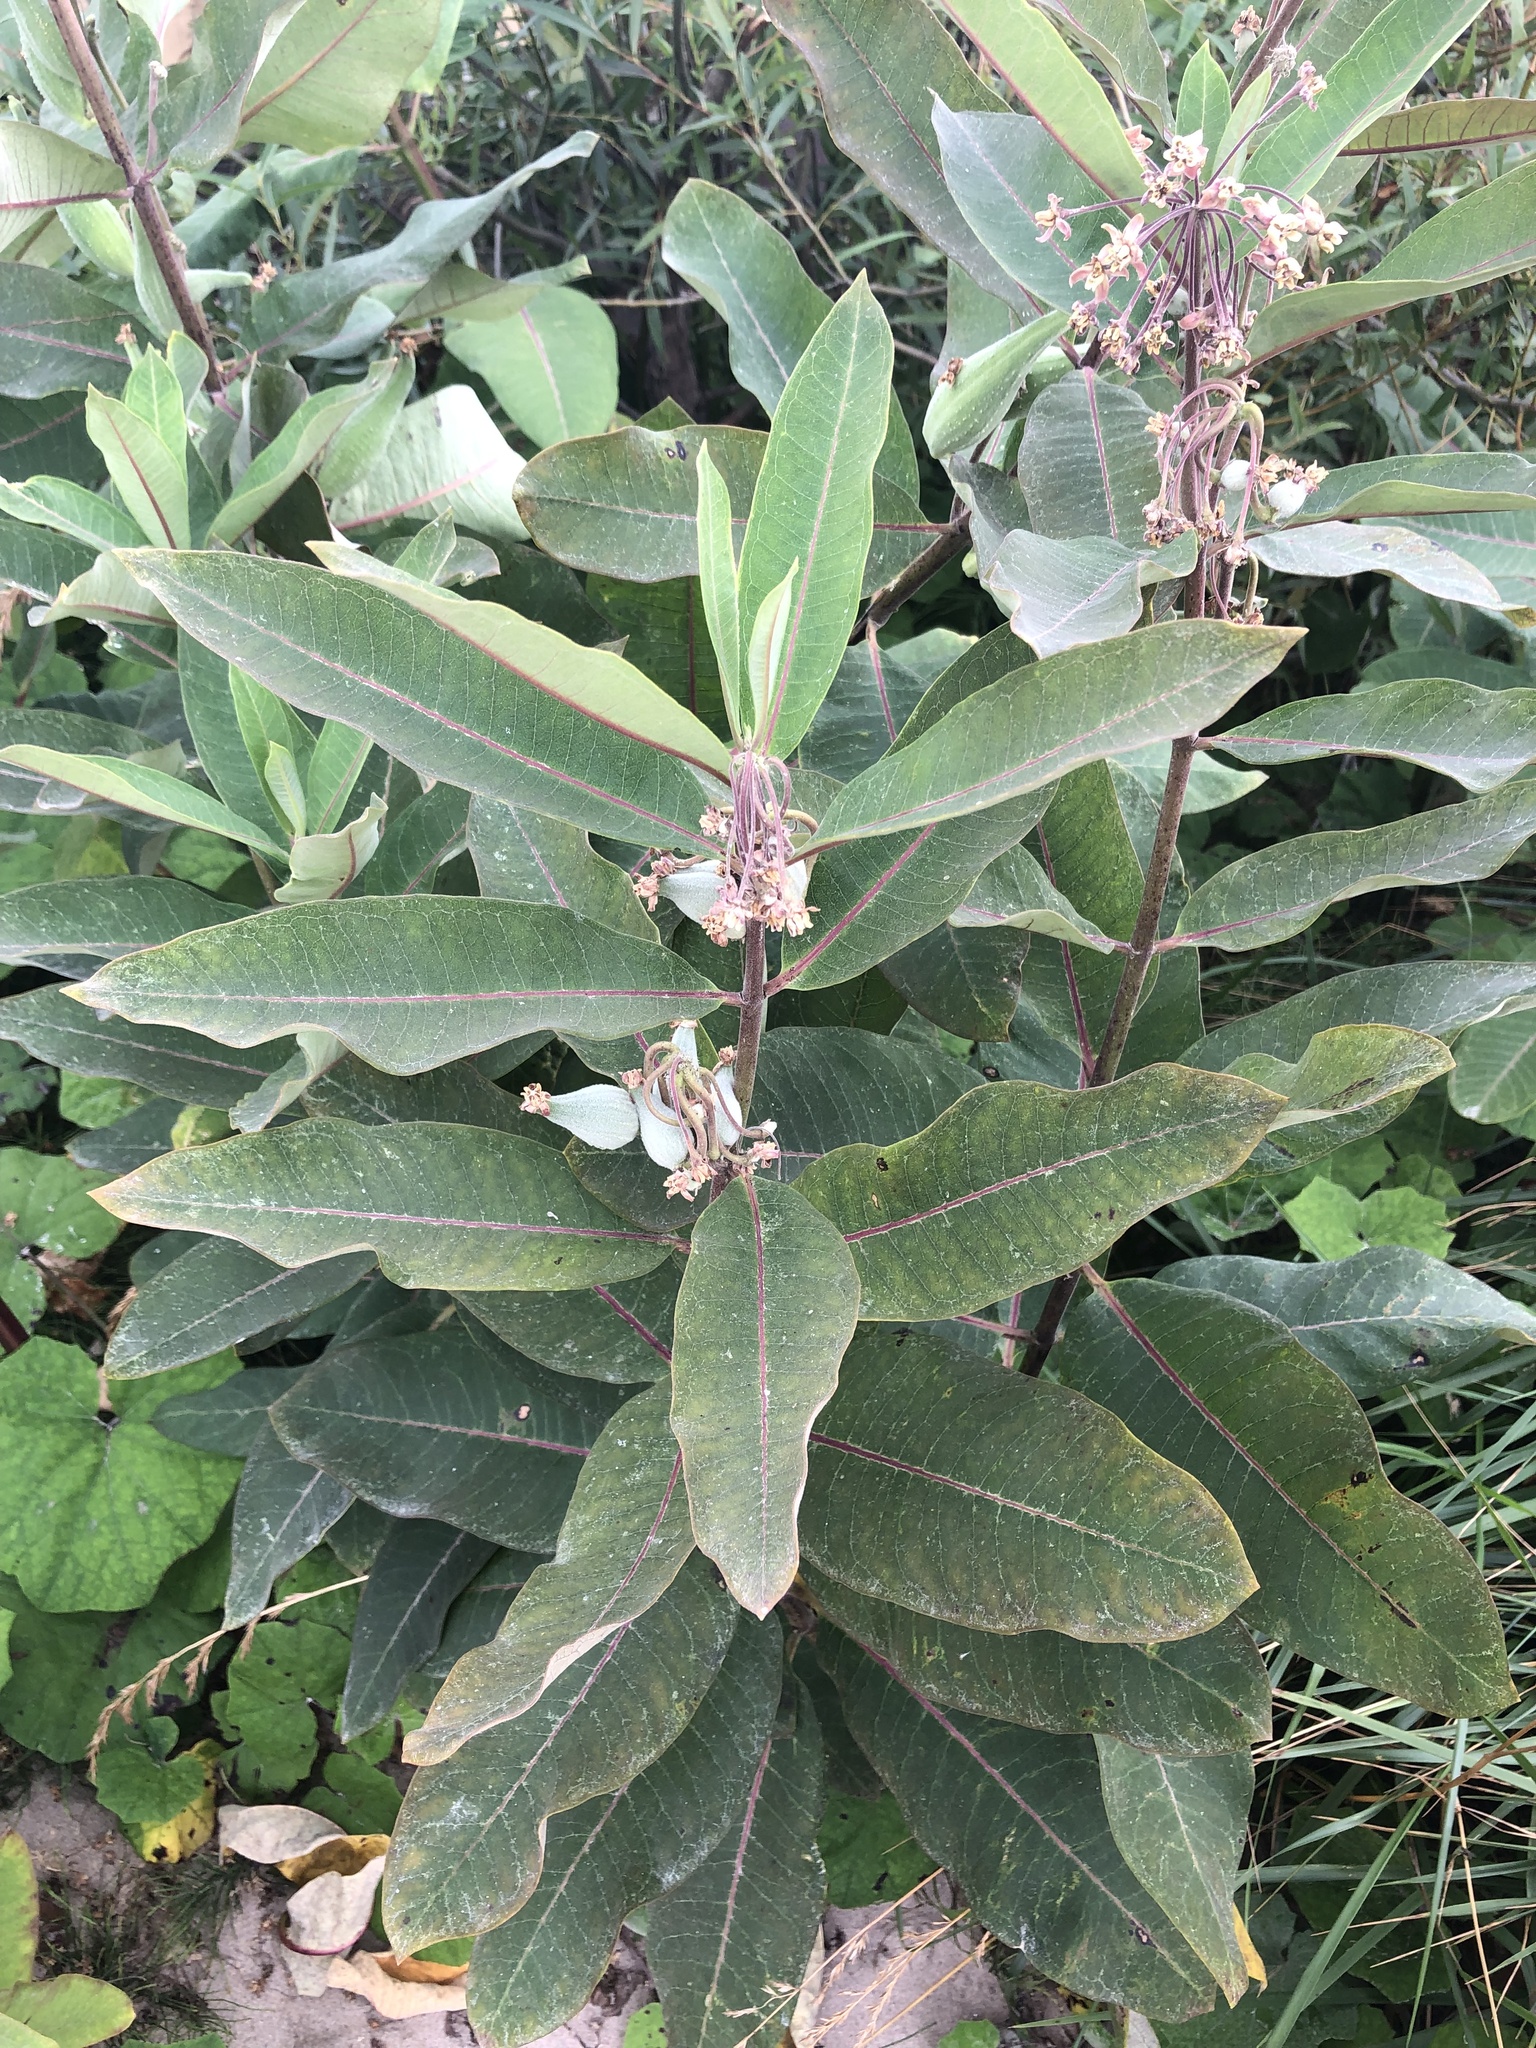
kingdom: Plantae
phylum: Tracheophyta
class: Magnoliopsida
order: Gentianales
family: Apocynaceae
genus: Asclepias
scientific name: Asclepias syriaca
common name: Common milkweed
